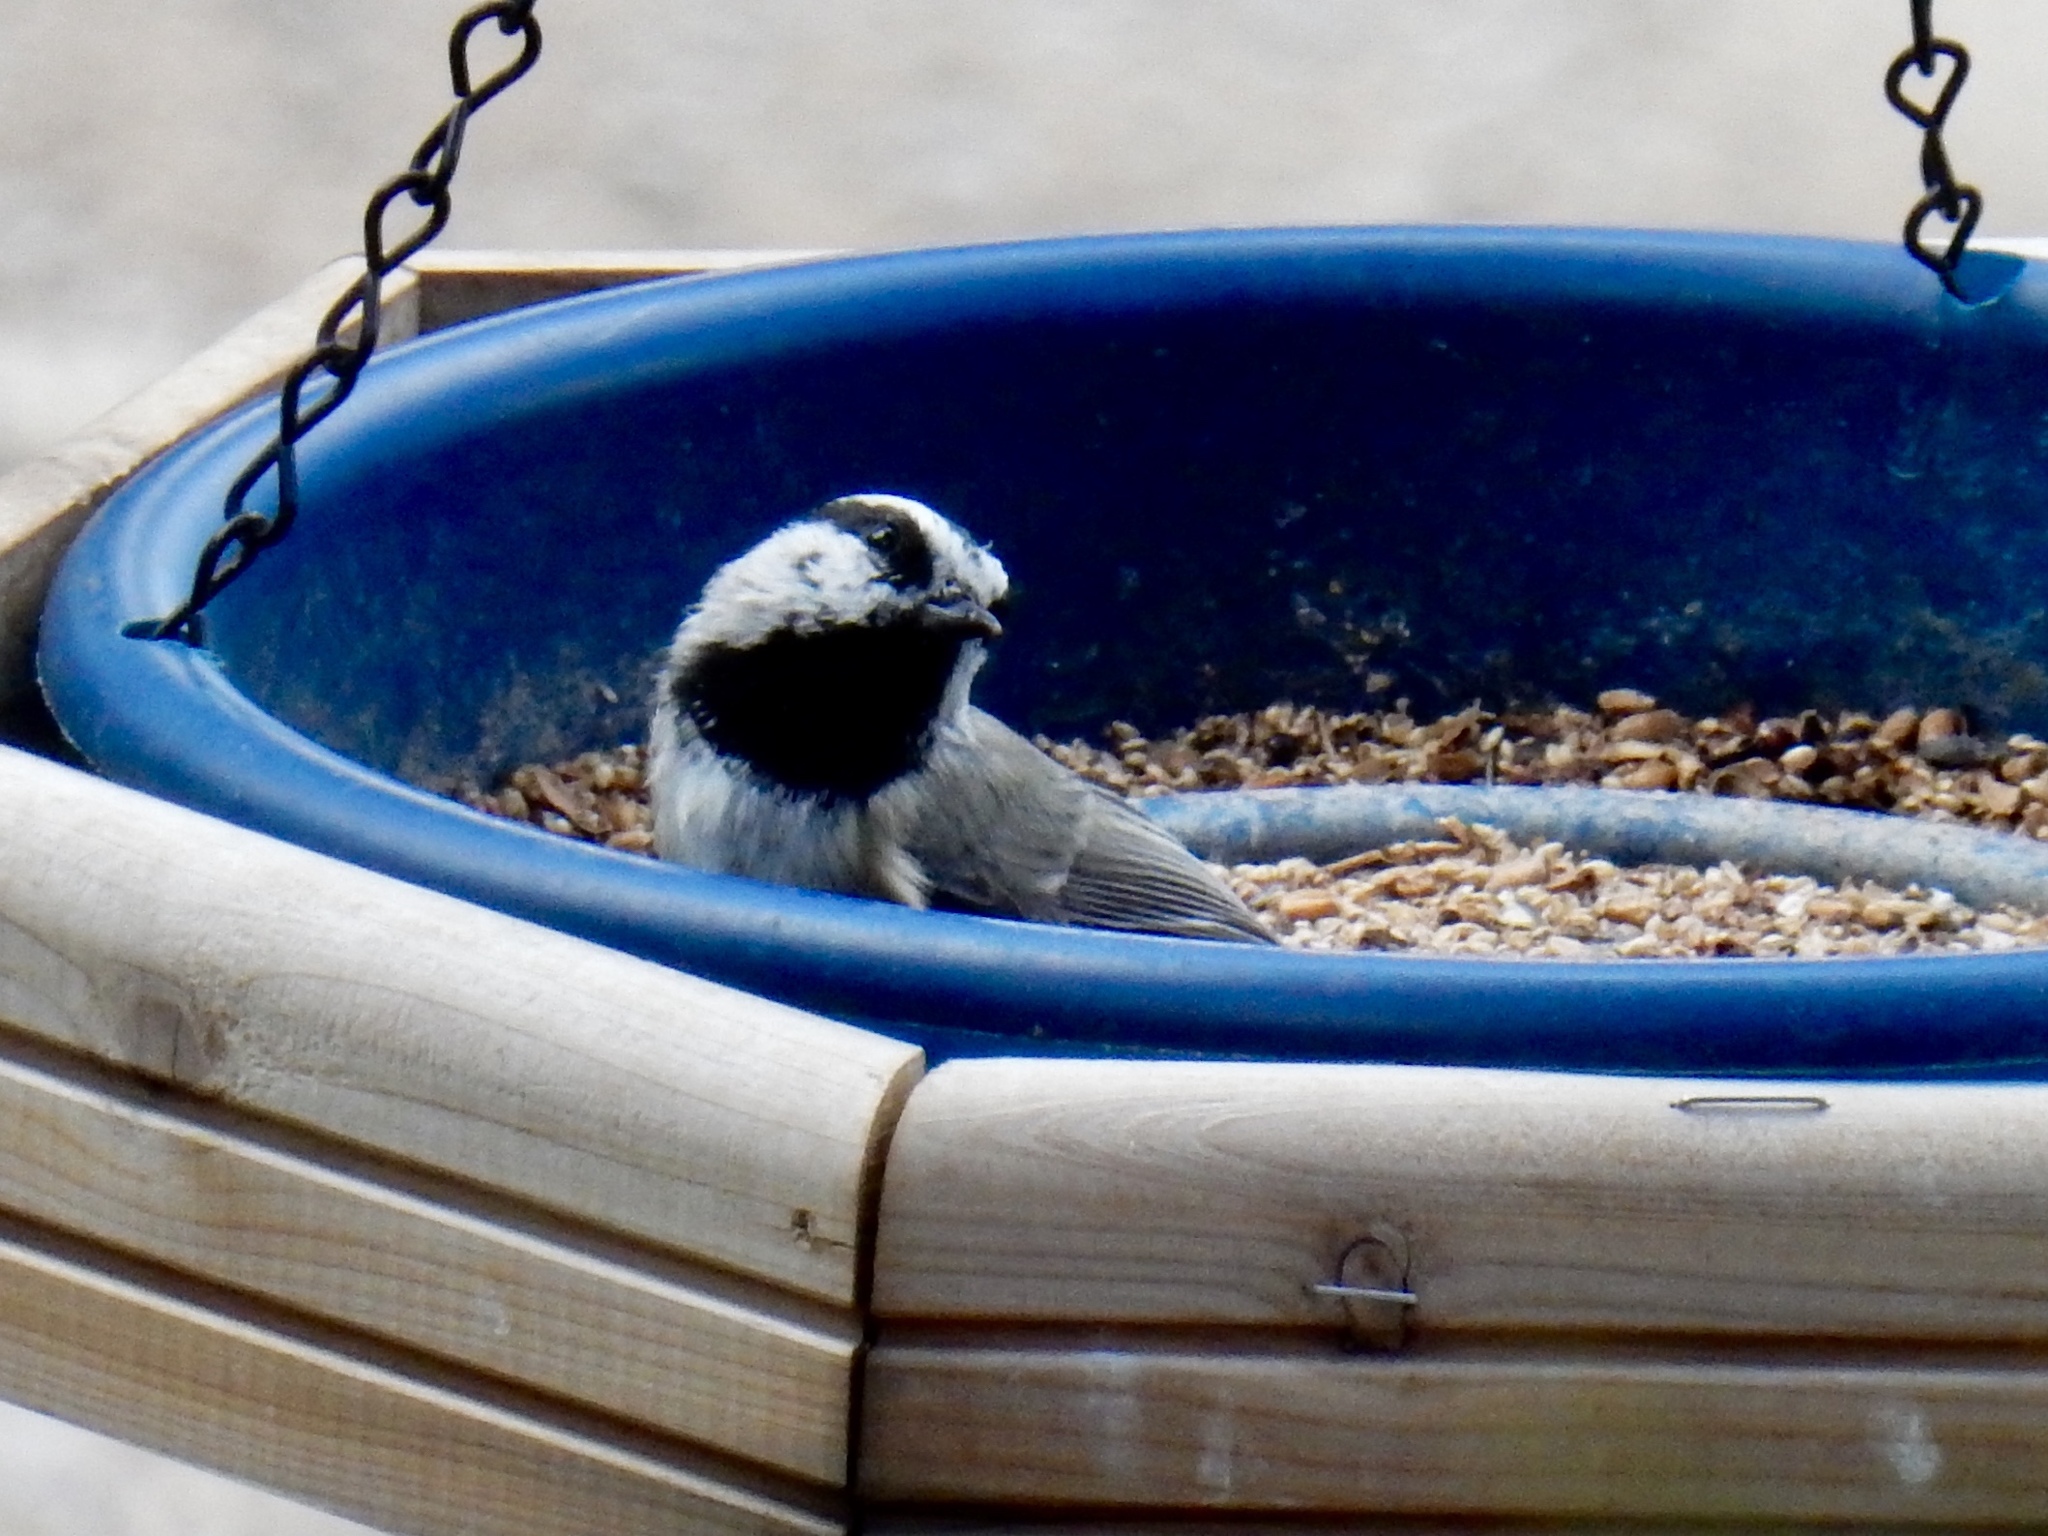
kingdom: Animalia
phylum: Chordata
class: Aves
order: Passeriformes
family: Paridae
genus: Poecile
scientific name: Poecile gambeli
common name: Mountain chickadee
